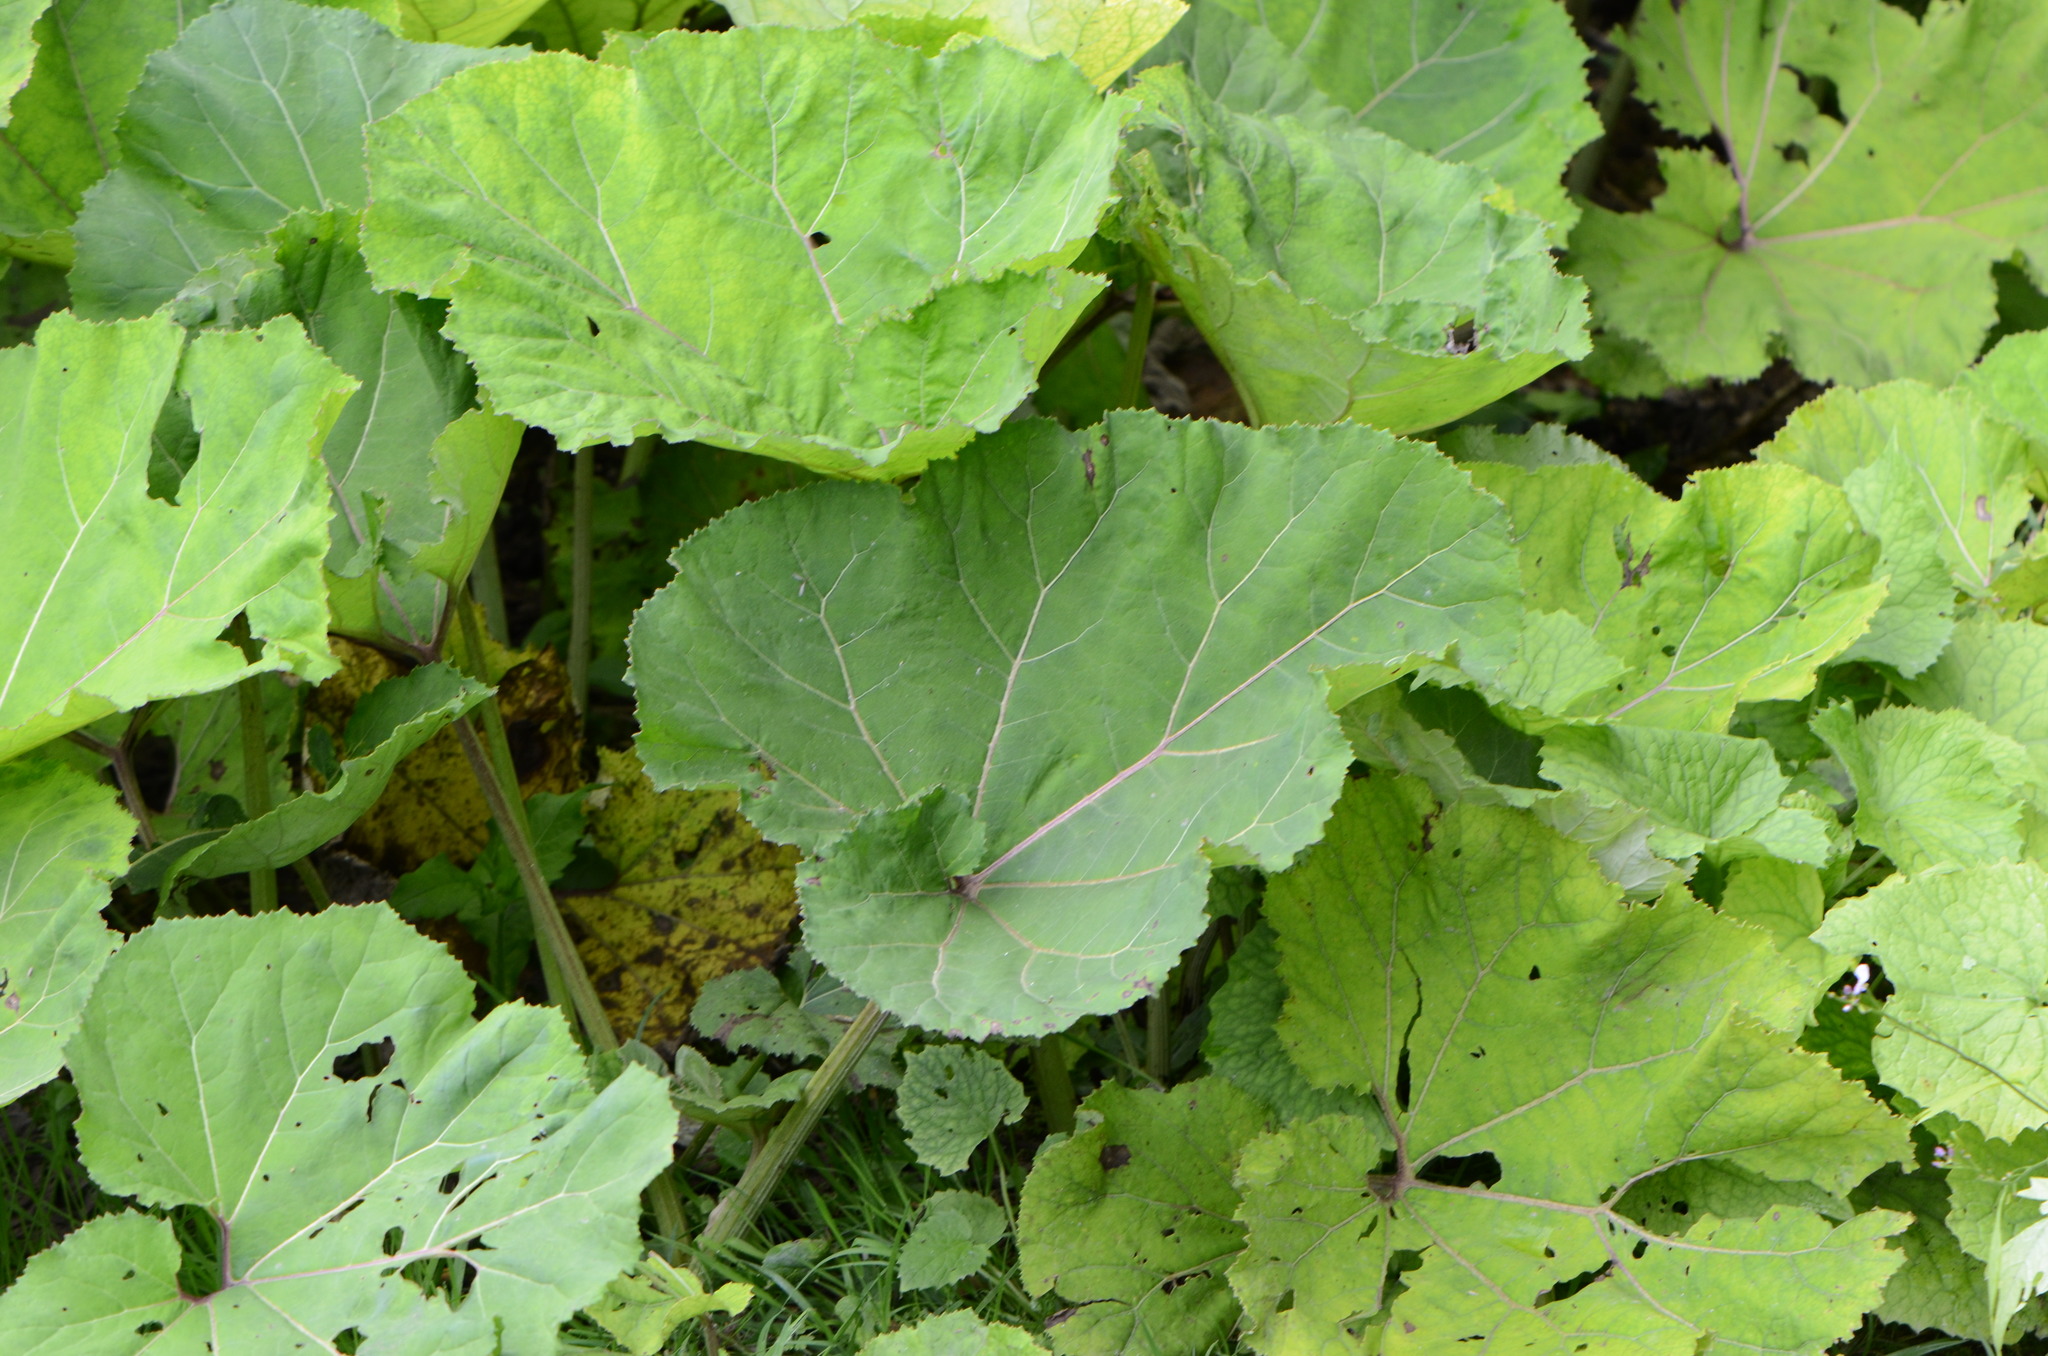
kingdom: Plantae
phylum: Tracheophyta
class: Magnoliopsida
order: Asterales
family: Asteraceae
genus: Petasites
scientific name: Petasites hybridus
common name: Butterbur
